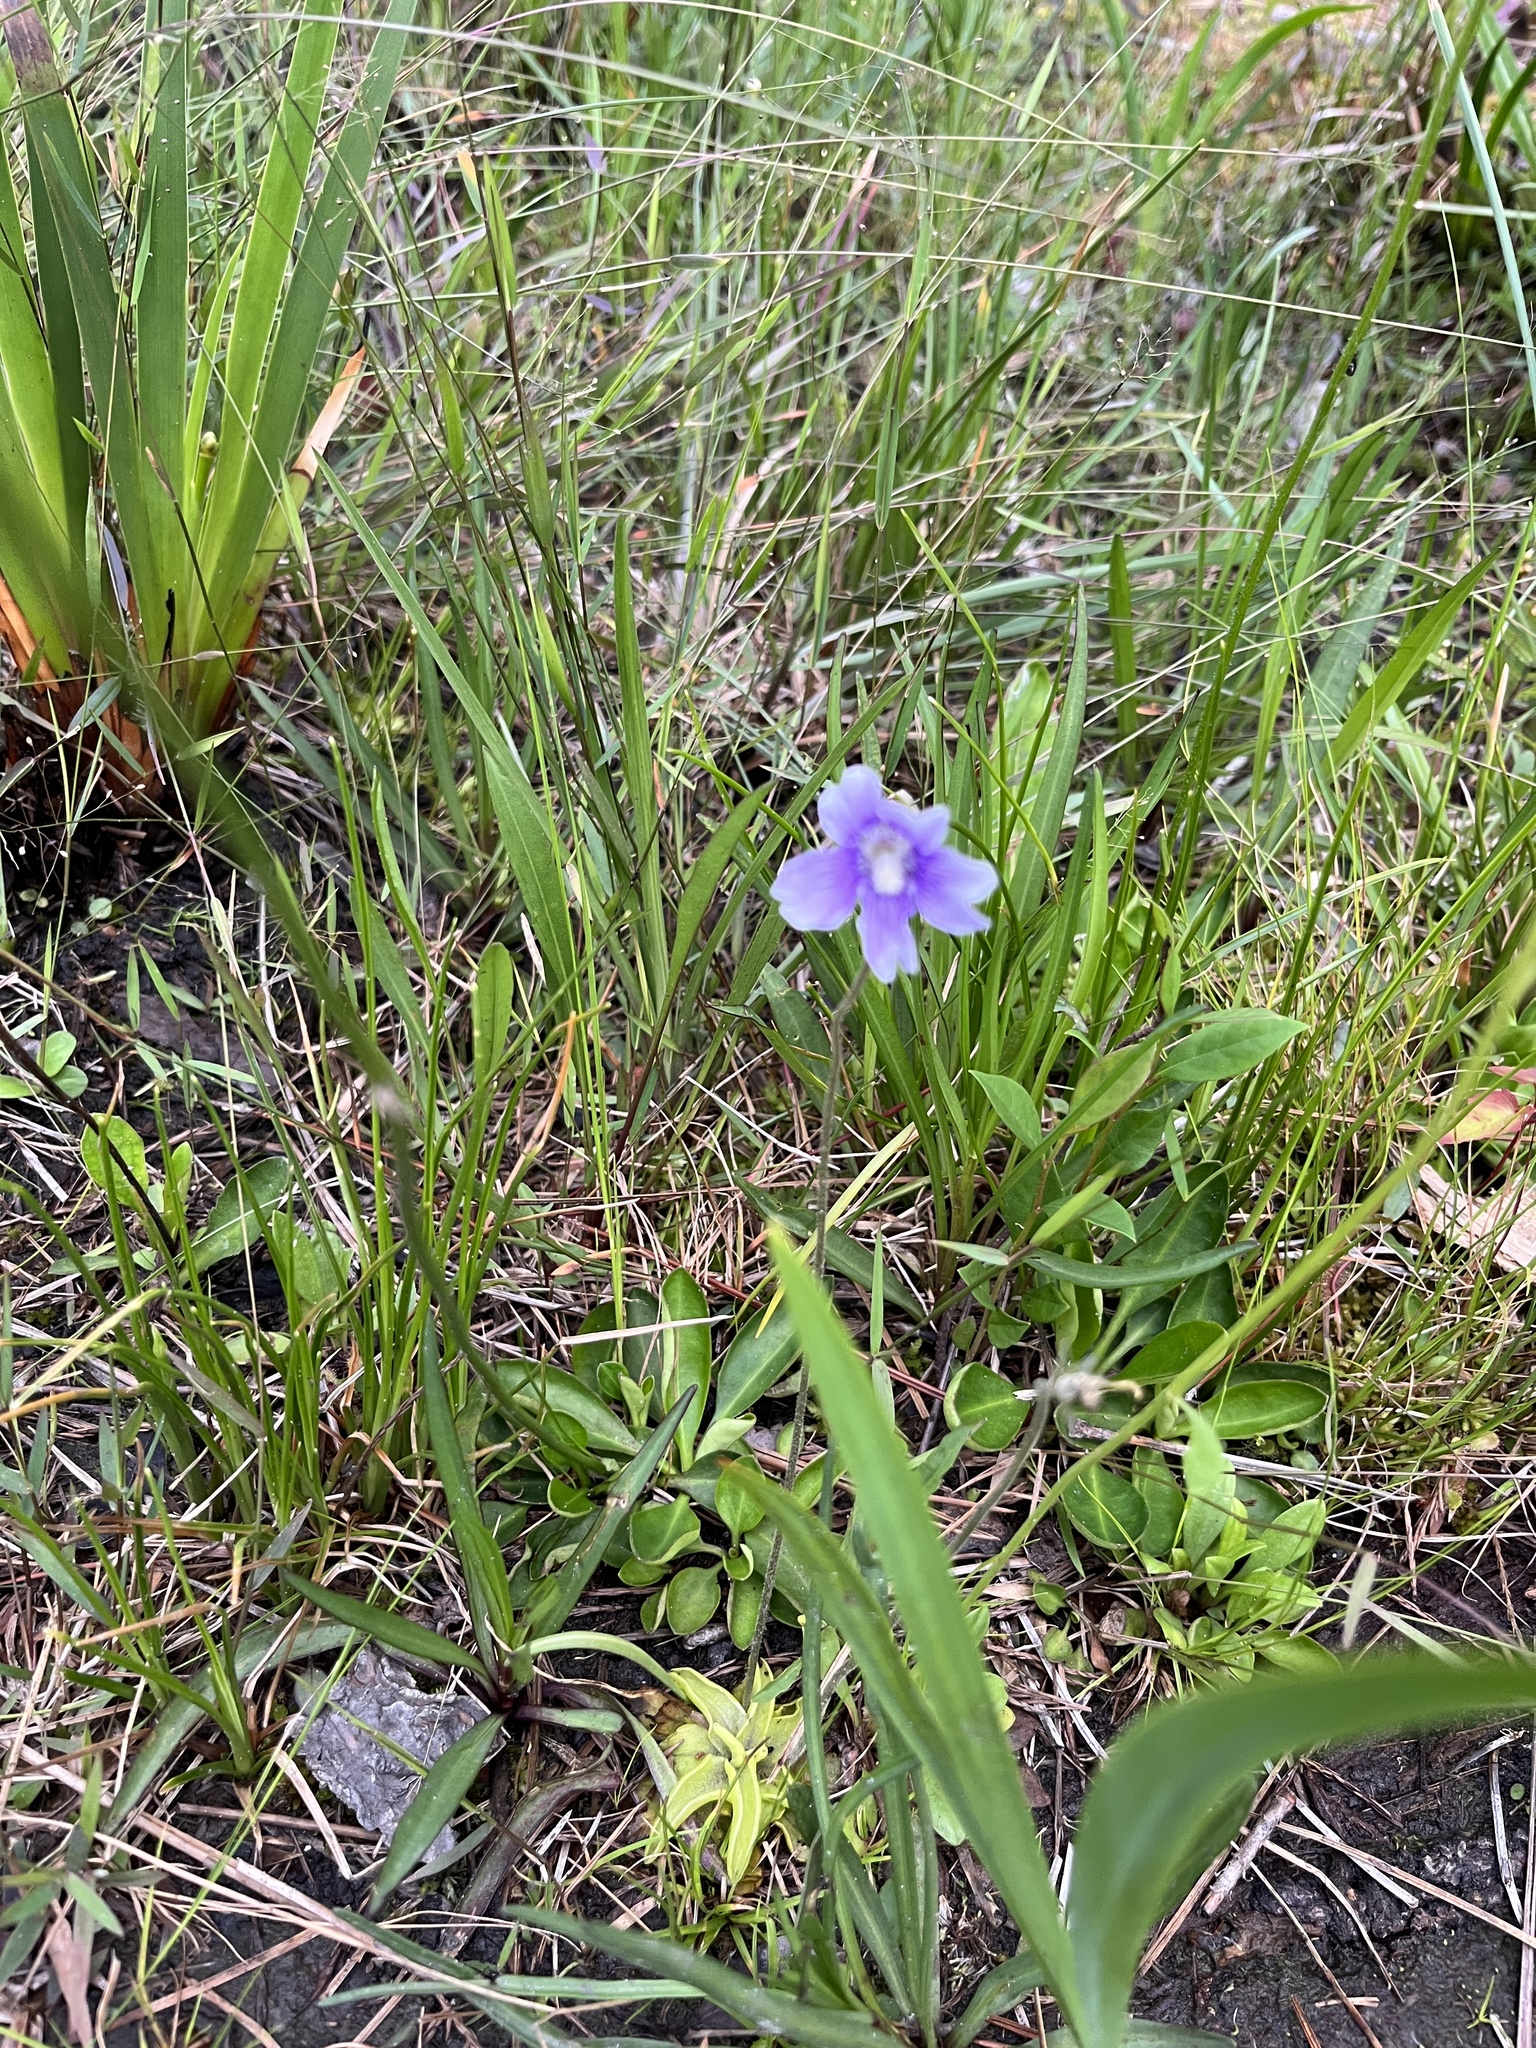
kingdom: Plantae
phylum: Tracheophyta
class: Magnoliopsida
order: Lamiales
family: Lentibulariaceae
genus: Pinguicula
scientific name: Pinguicula caerulea
